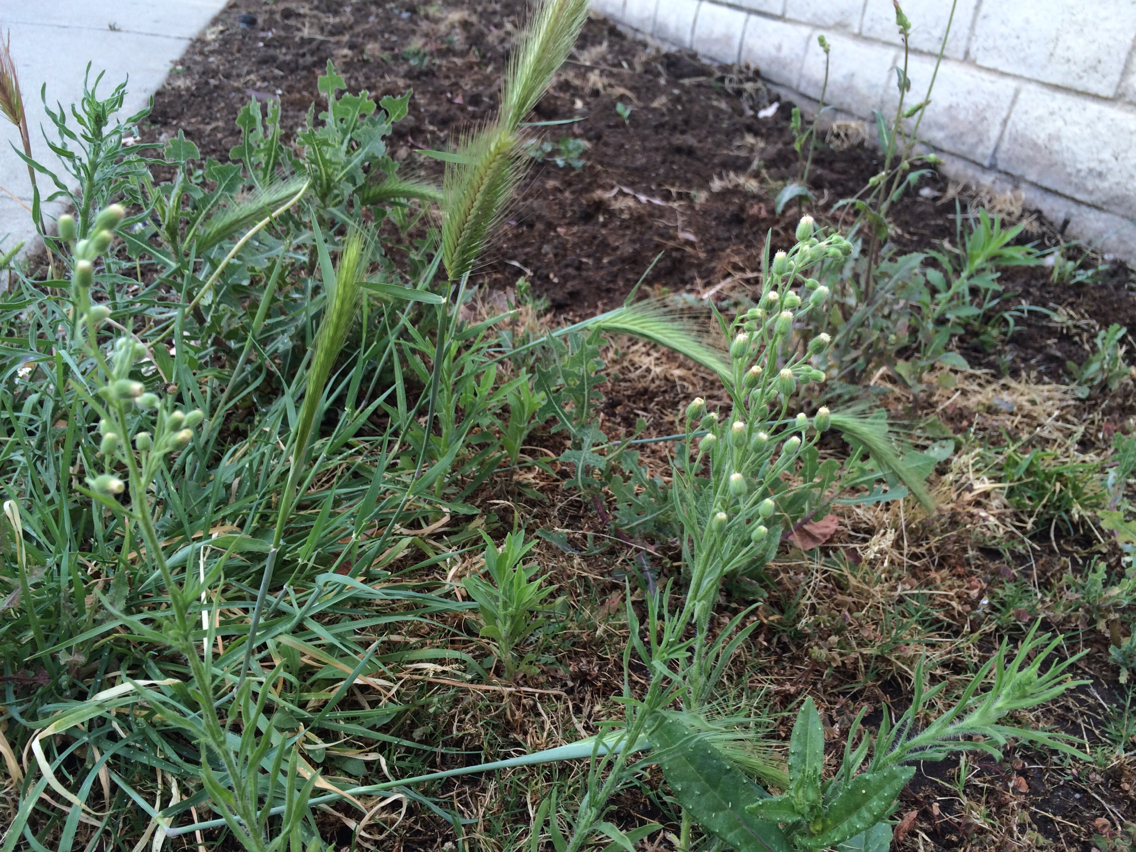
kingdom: Plantae
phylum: Tracheophyta
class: Magnoliopsida
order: Asterales
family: Asteraceae
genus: Helminthotheca
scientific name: Helminthotheca echioides
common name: Ox-tongue
